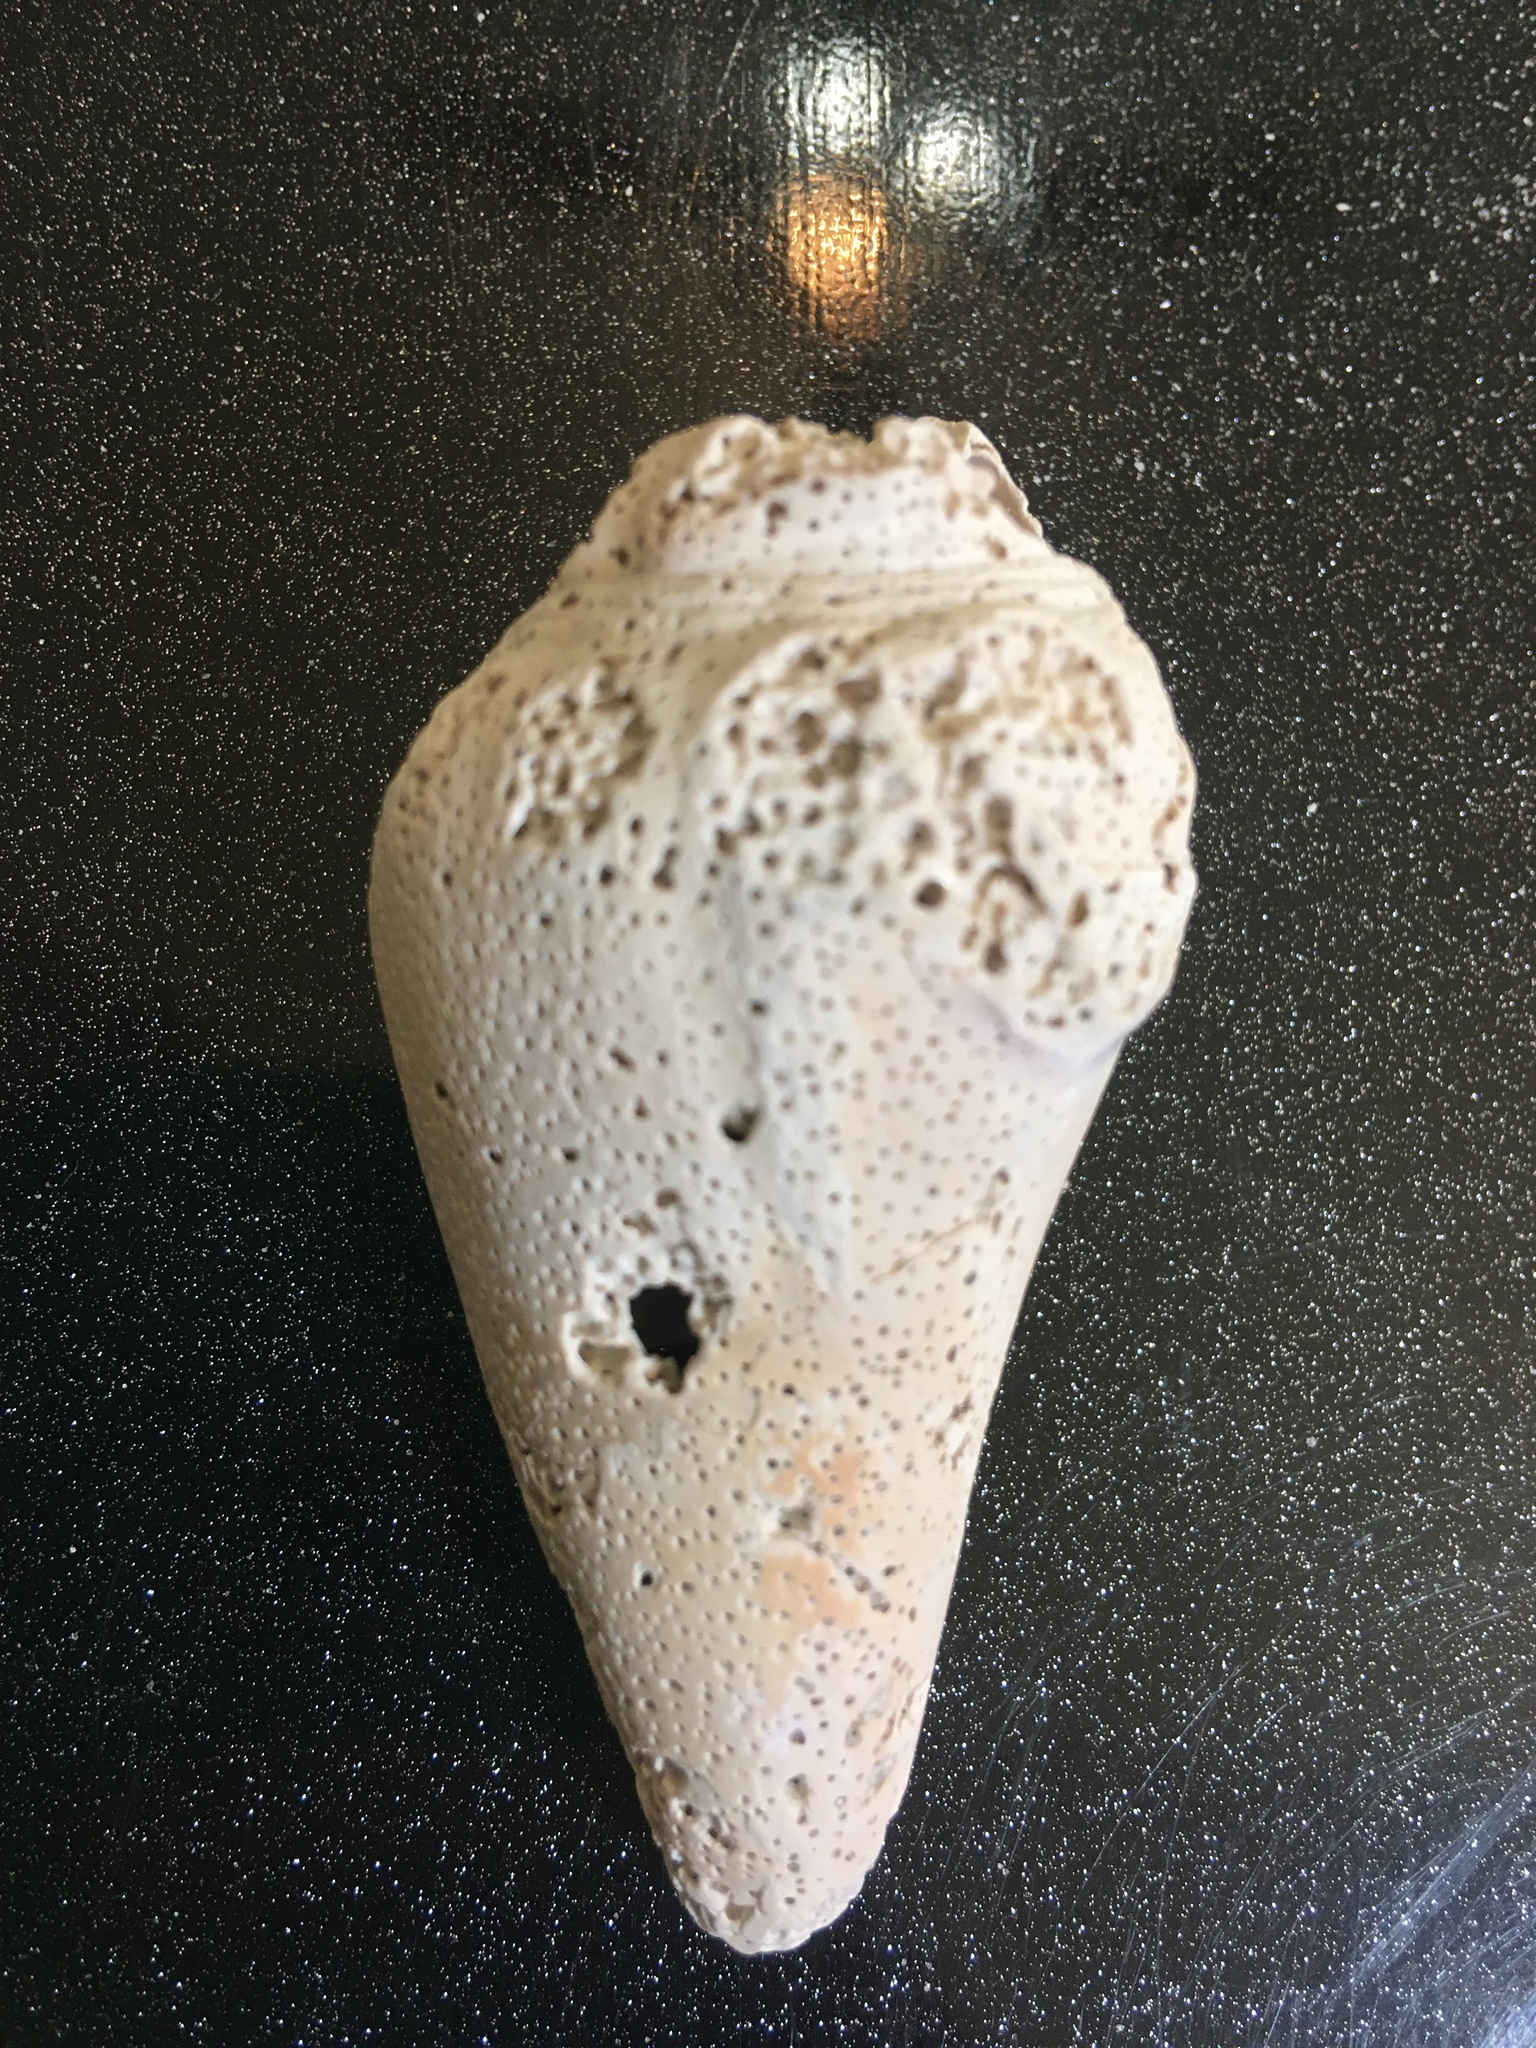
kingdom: Animalia
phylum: Mollusca
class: Gastropoda
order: Littorinimorpha
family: Strombidae
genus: Strombus
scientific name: Strombus alatus
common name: Florida fighting conch
